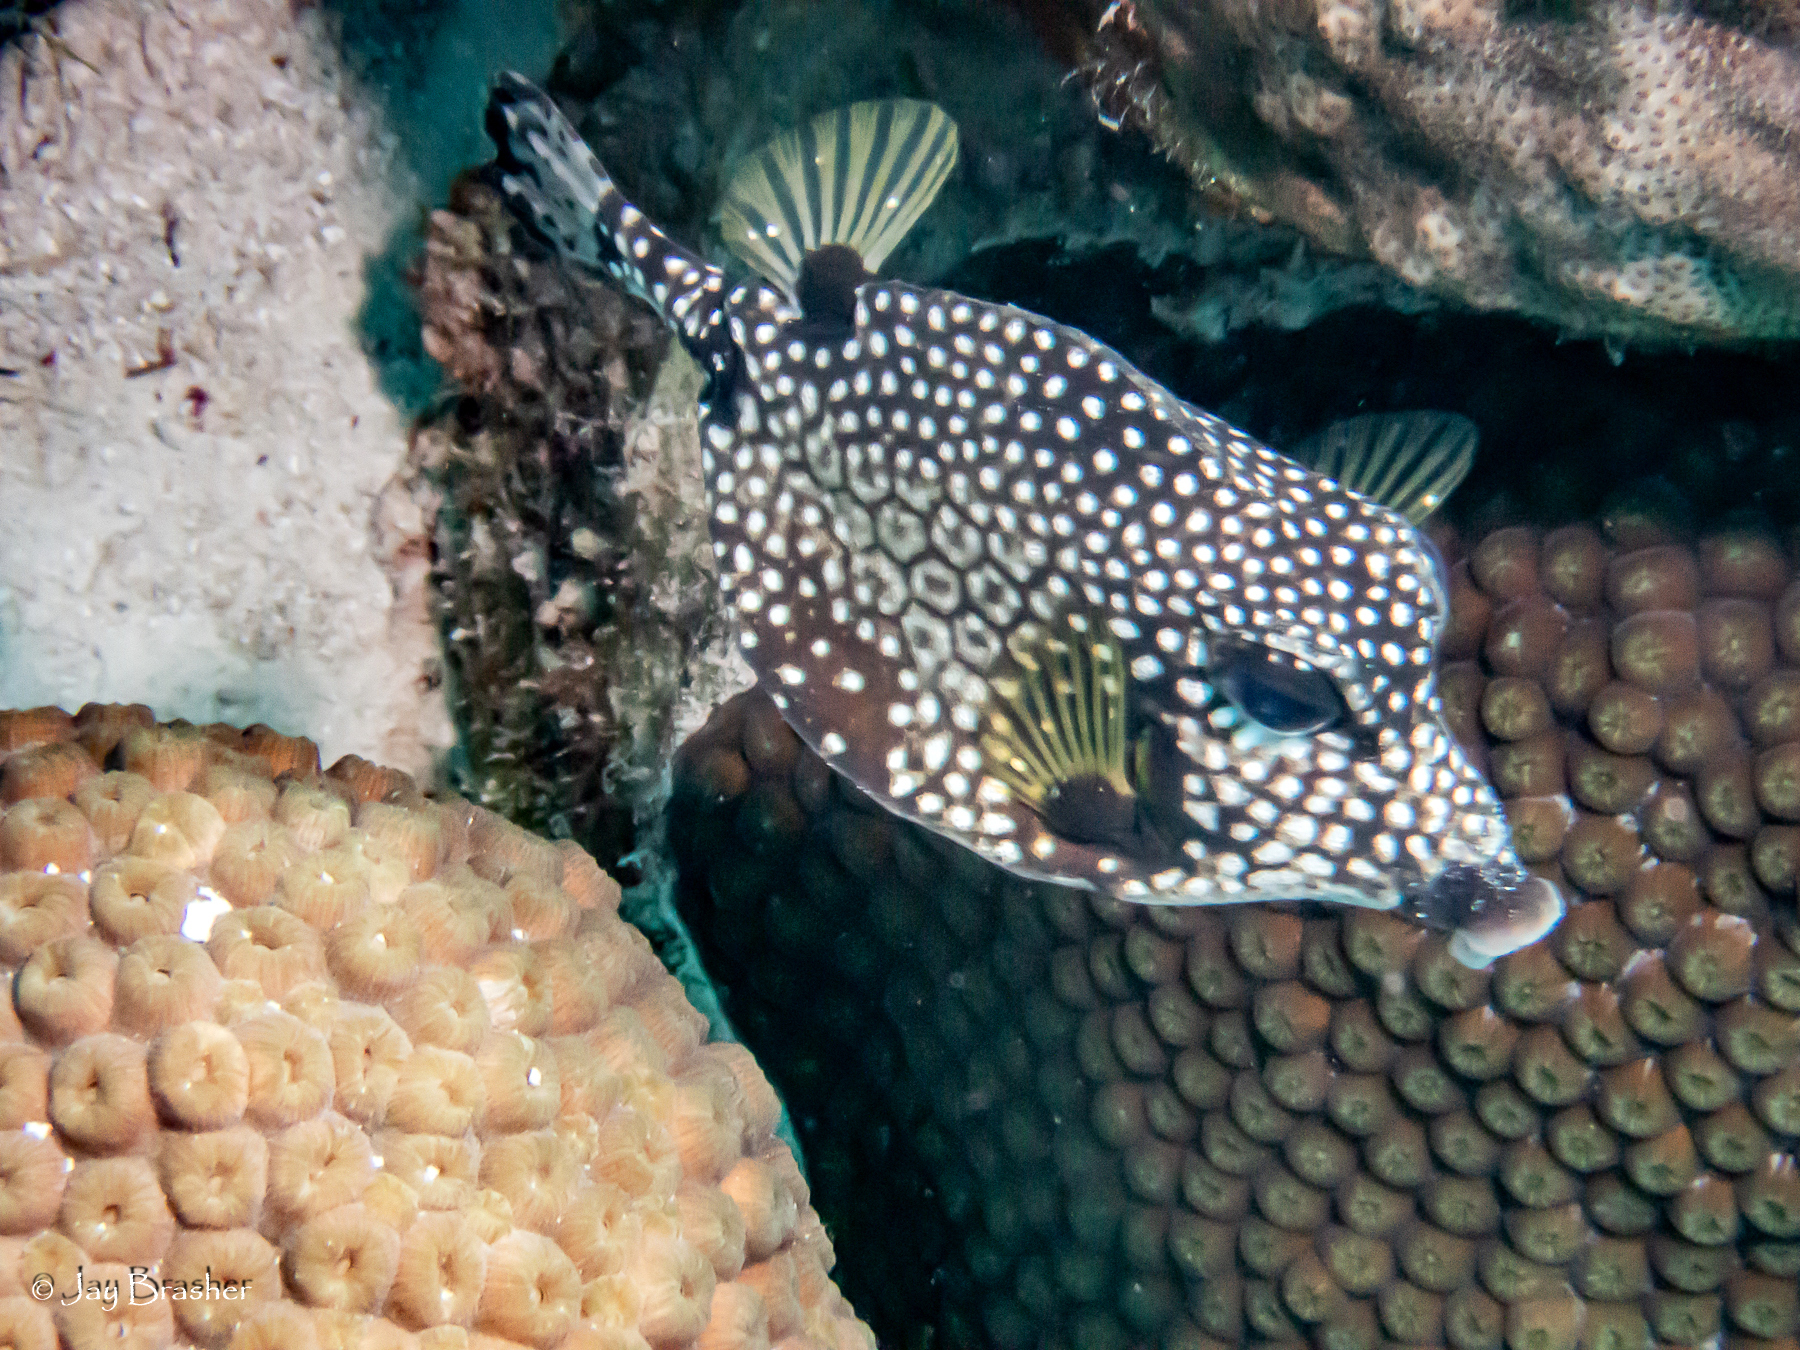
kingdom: Animalia
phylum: Cnidaria
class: Anthozoa
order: Scleractinia
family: Montastraeidae
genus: Montastraea
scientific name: Montastraea cavernosa
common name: Great star coral
